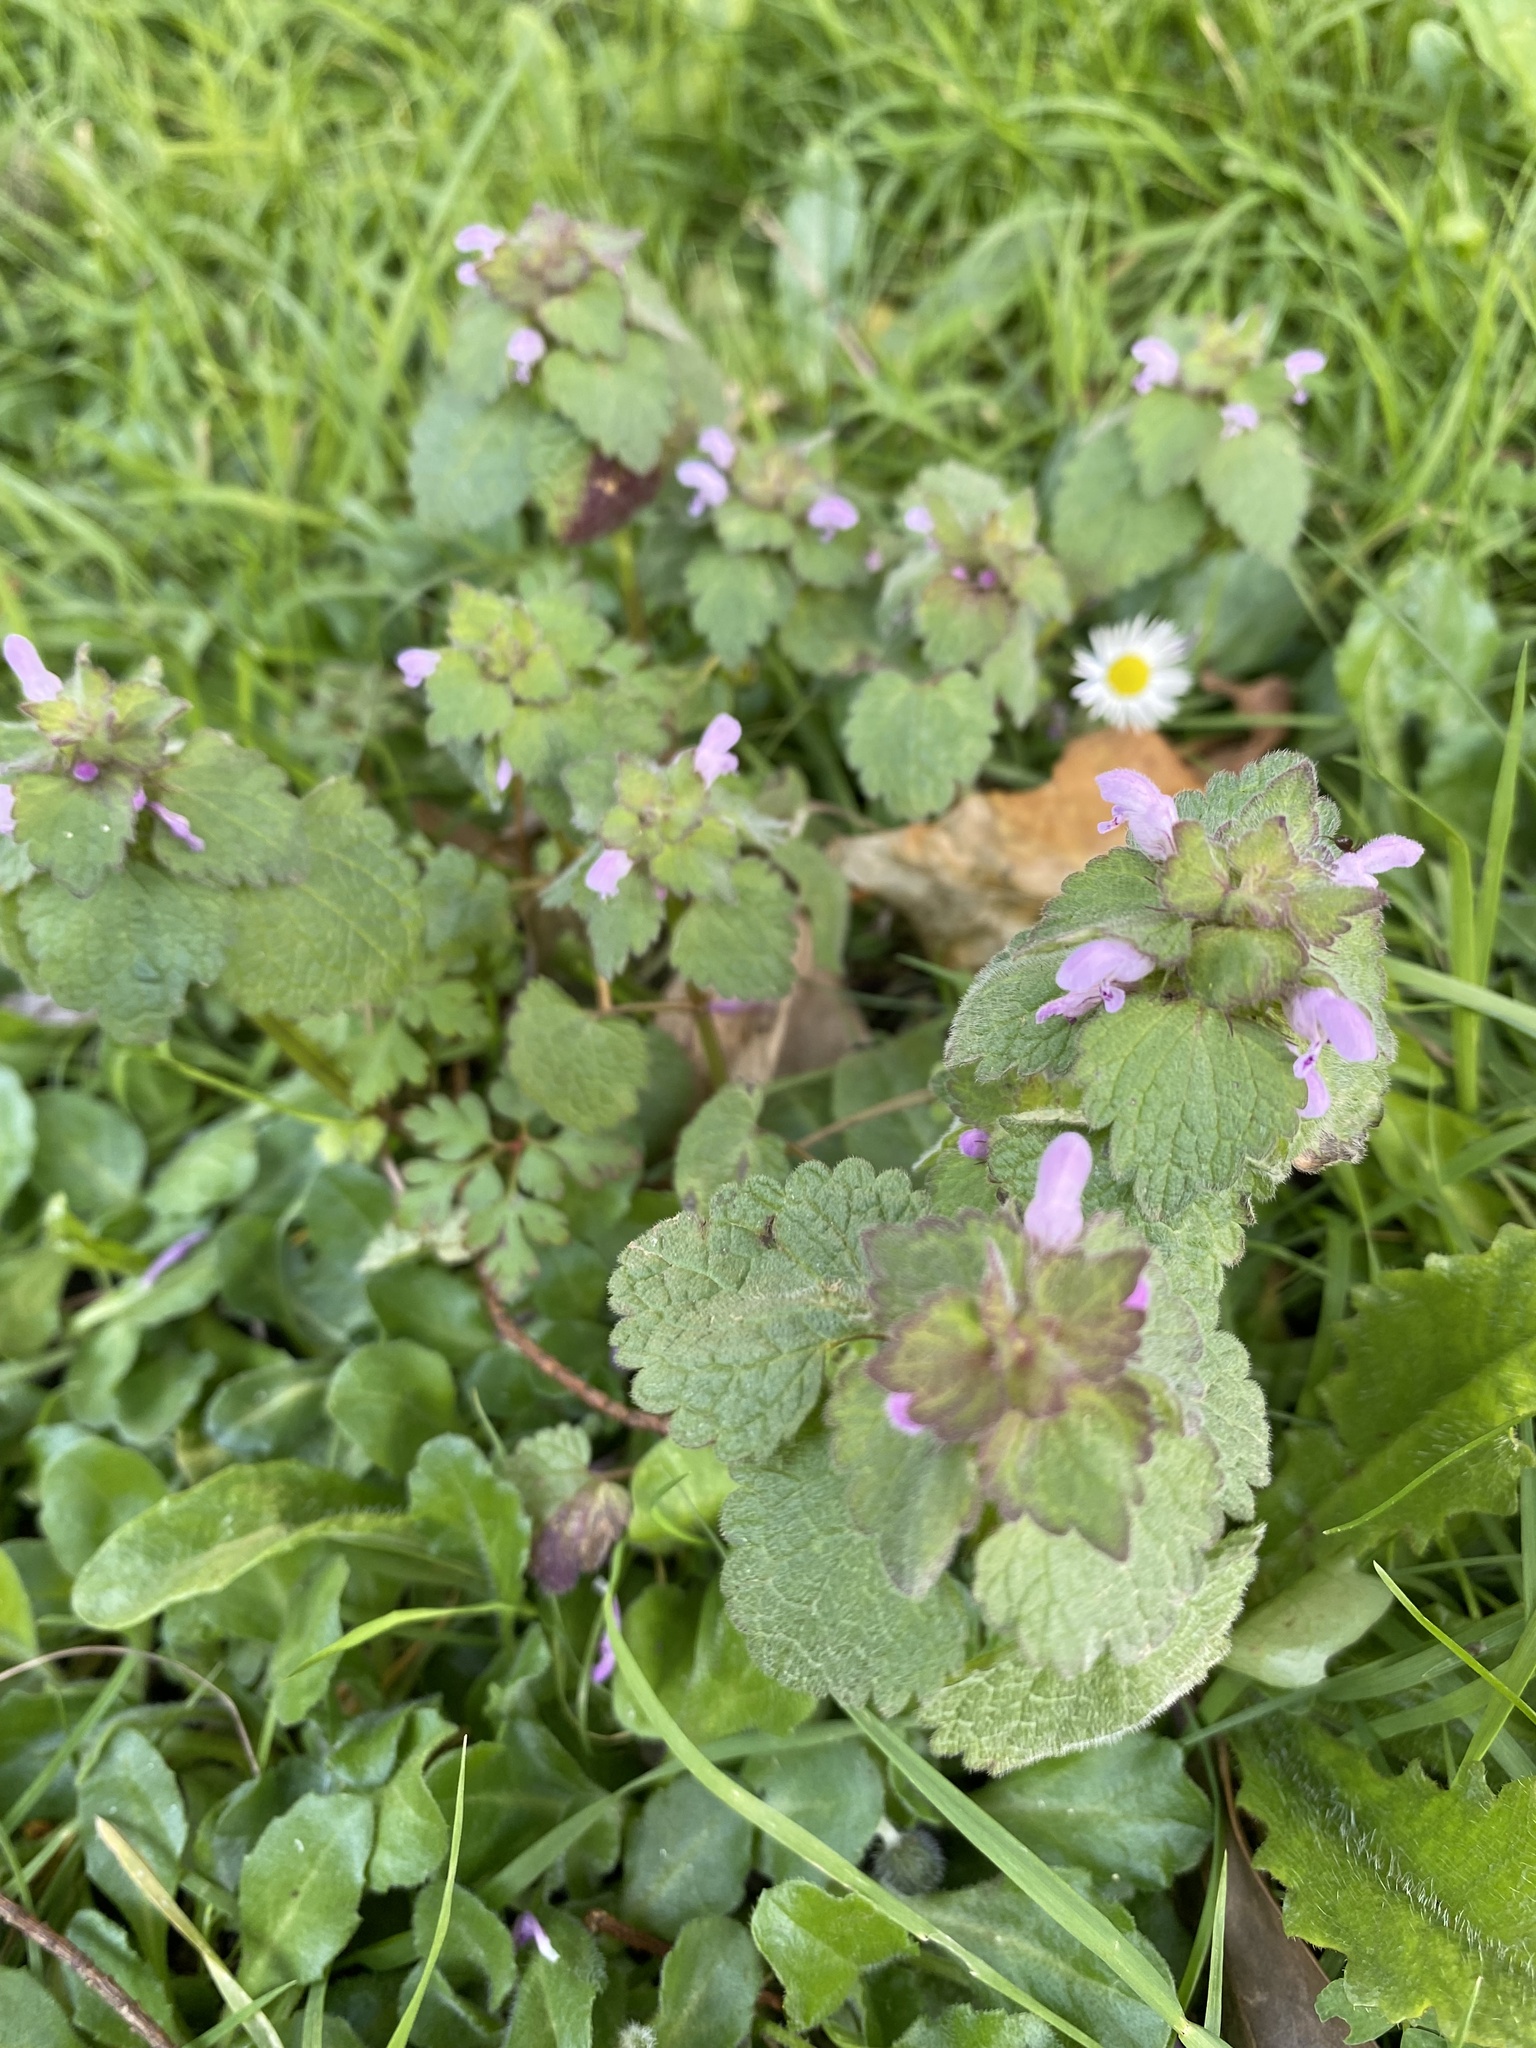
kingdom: Plantae
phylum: Tracheophyta
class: Magnoliopsida
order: Lamiales
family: Lamiaceae
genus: Lamium
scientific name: Lamium purpureum
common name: Red dead-nettle
